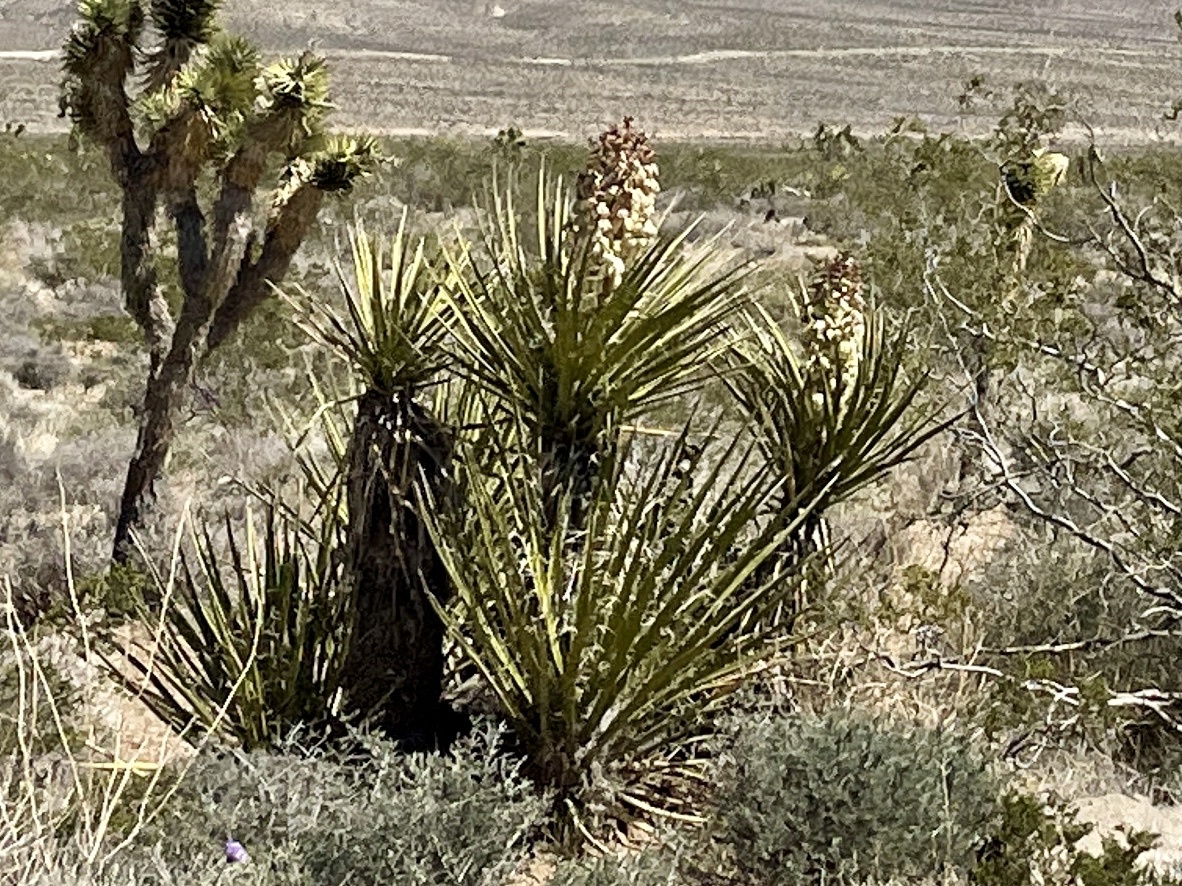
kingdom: Plantae
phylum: Tracheophyta
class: Liliopsida
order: Asparagales
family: Asparagaceae
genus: Yucca
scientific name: Yucca schidigera
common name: Mojave yucca
